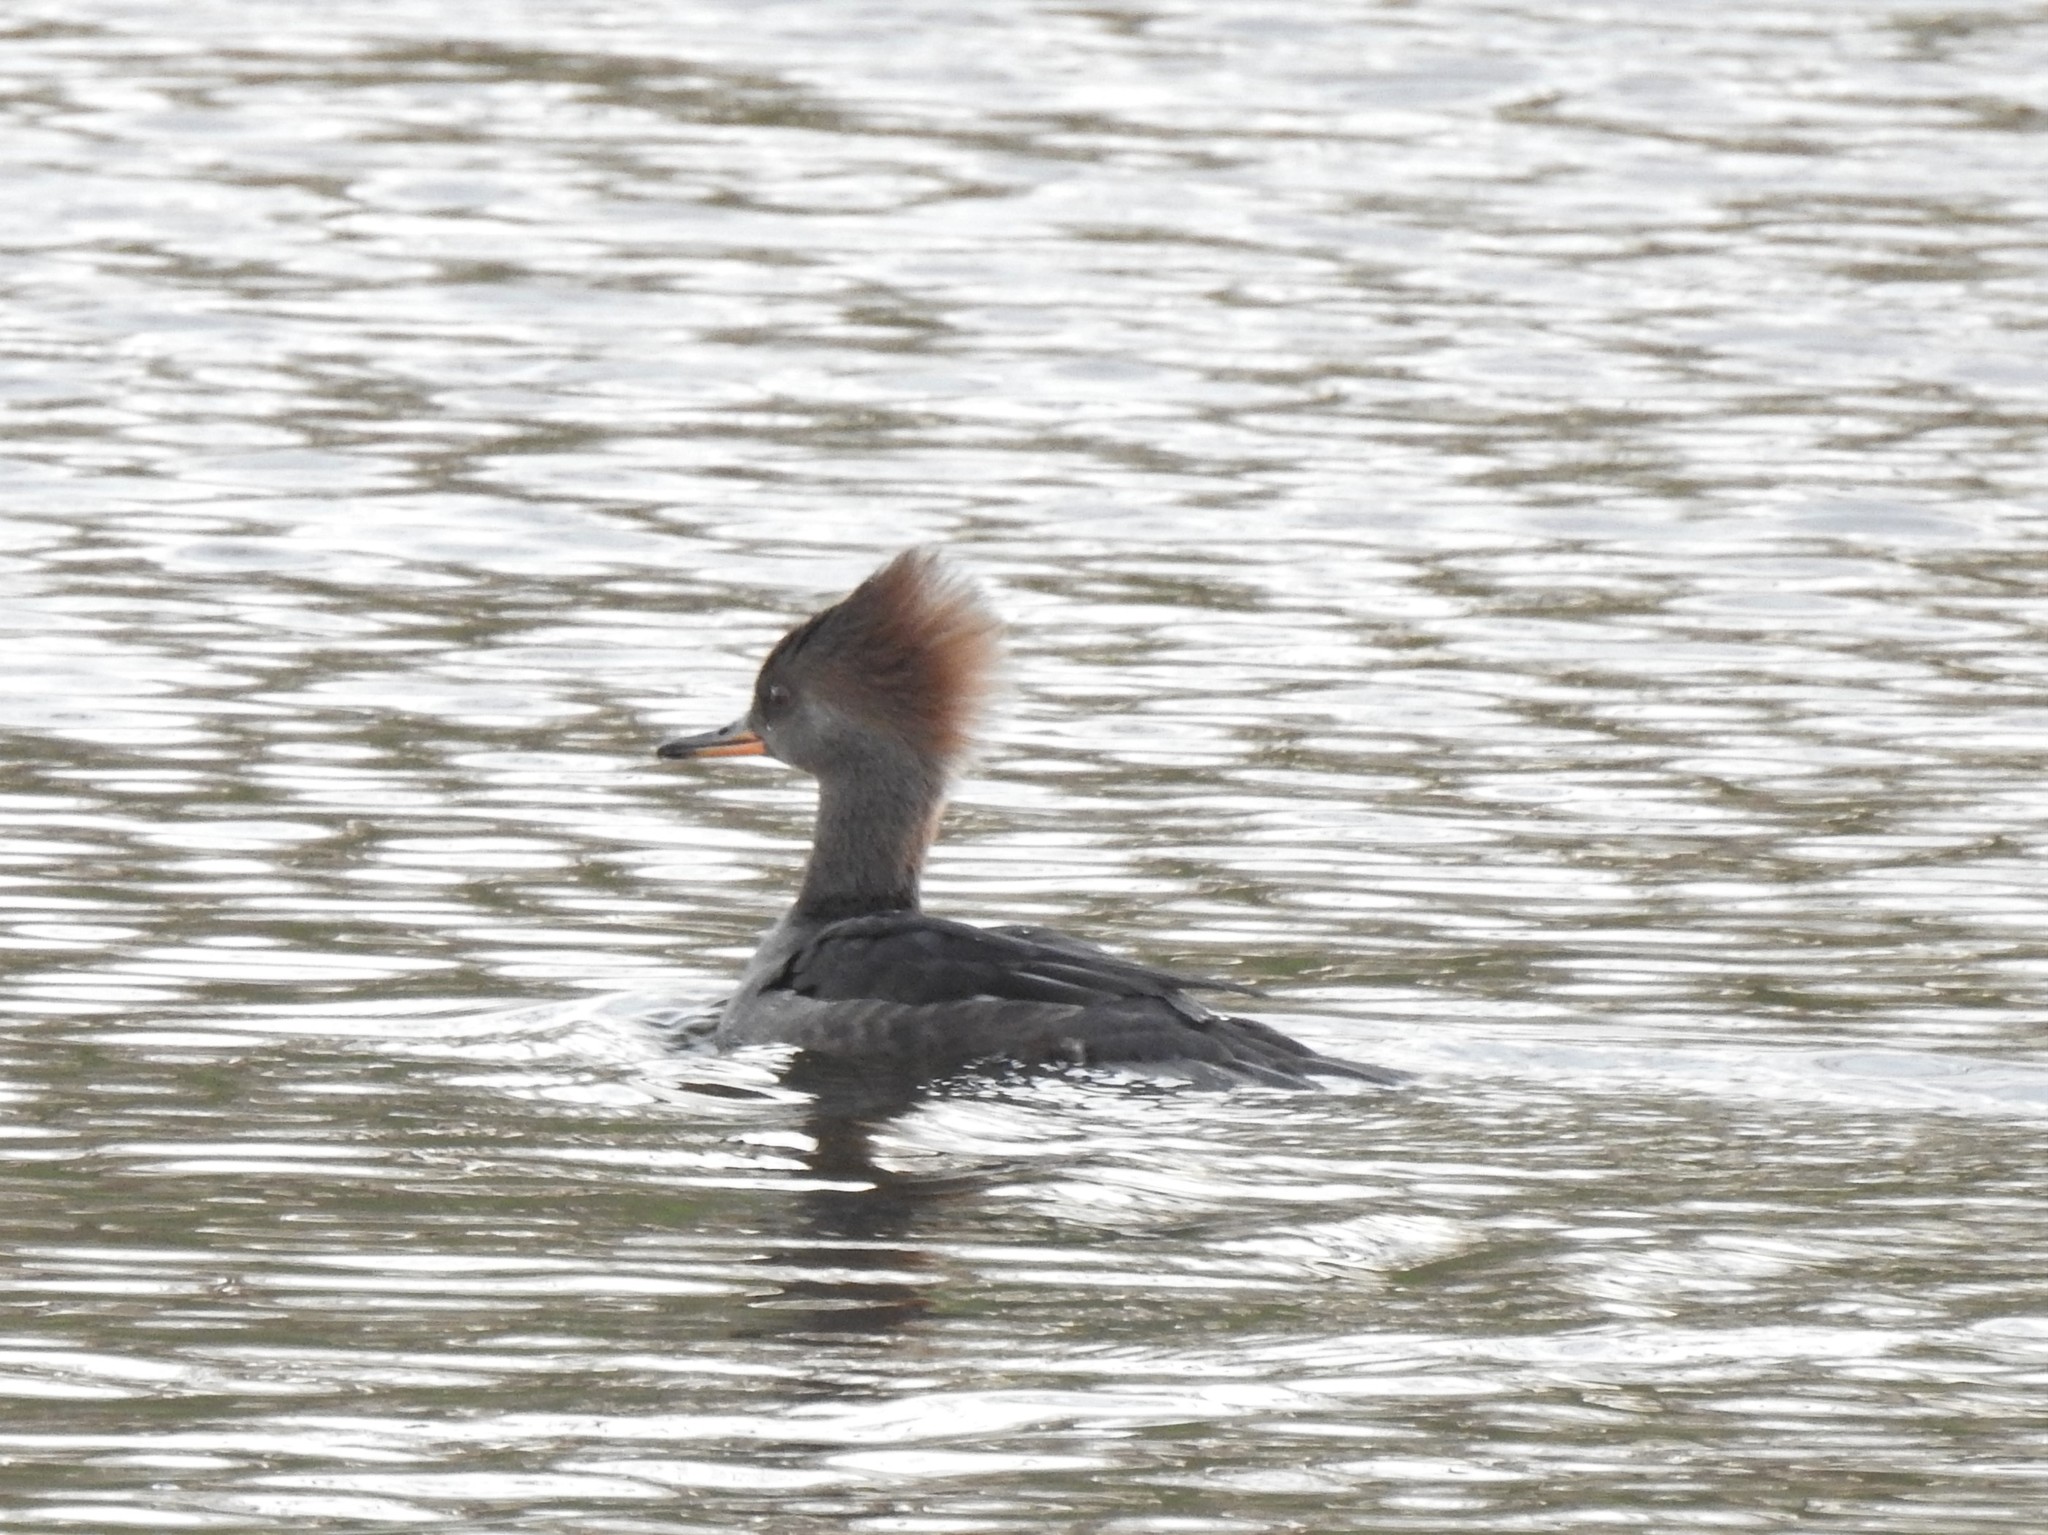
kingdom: Animalia
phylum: Chordata
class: Aves
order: Anseriformes
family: Anatidae
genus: Lophodytes
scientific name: Lophodytes cucullatus
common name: Hooded merganser
